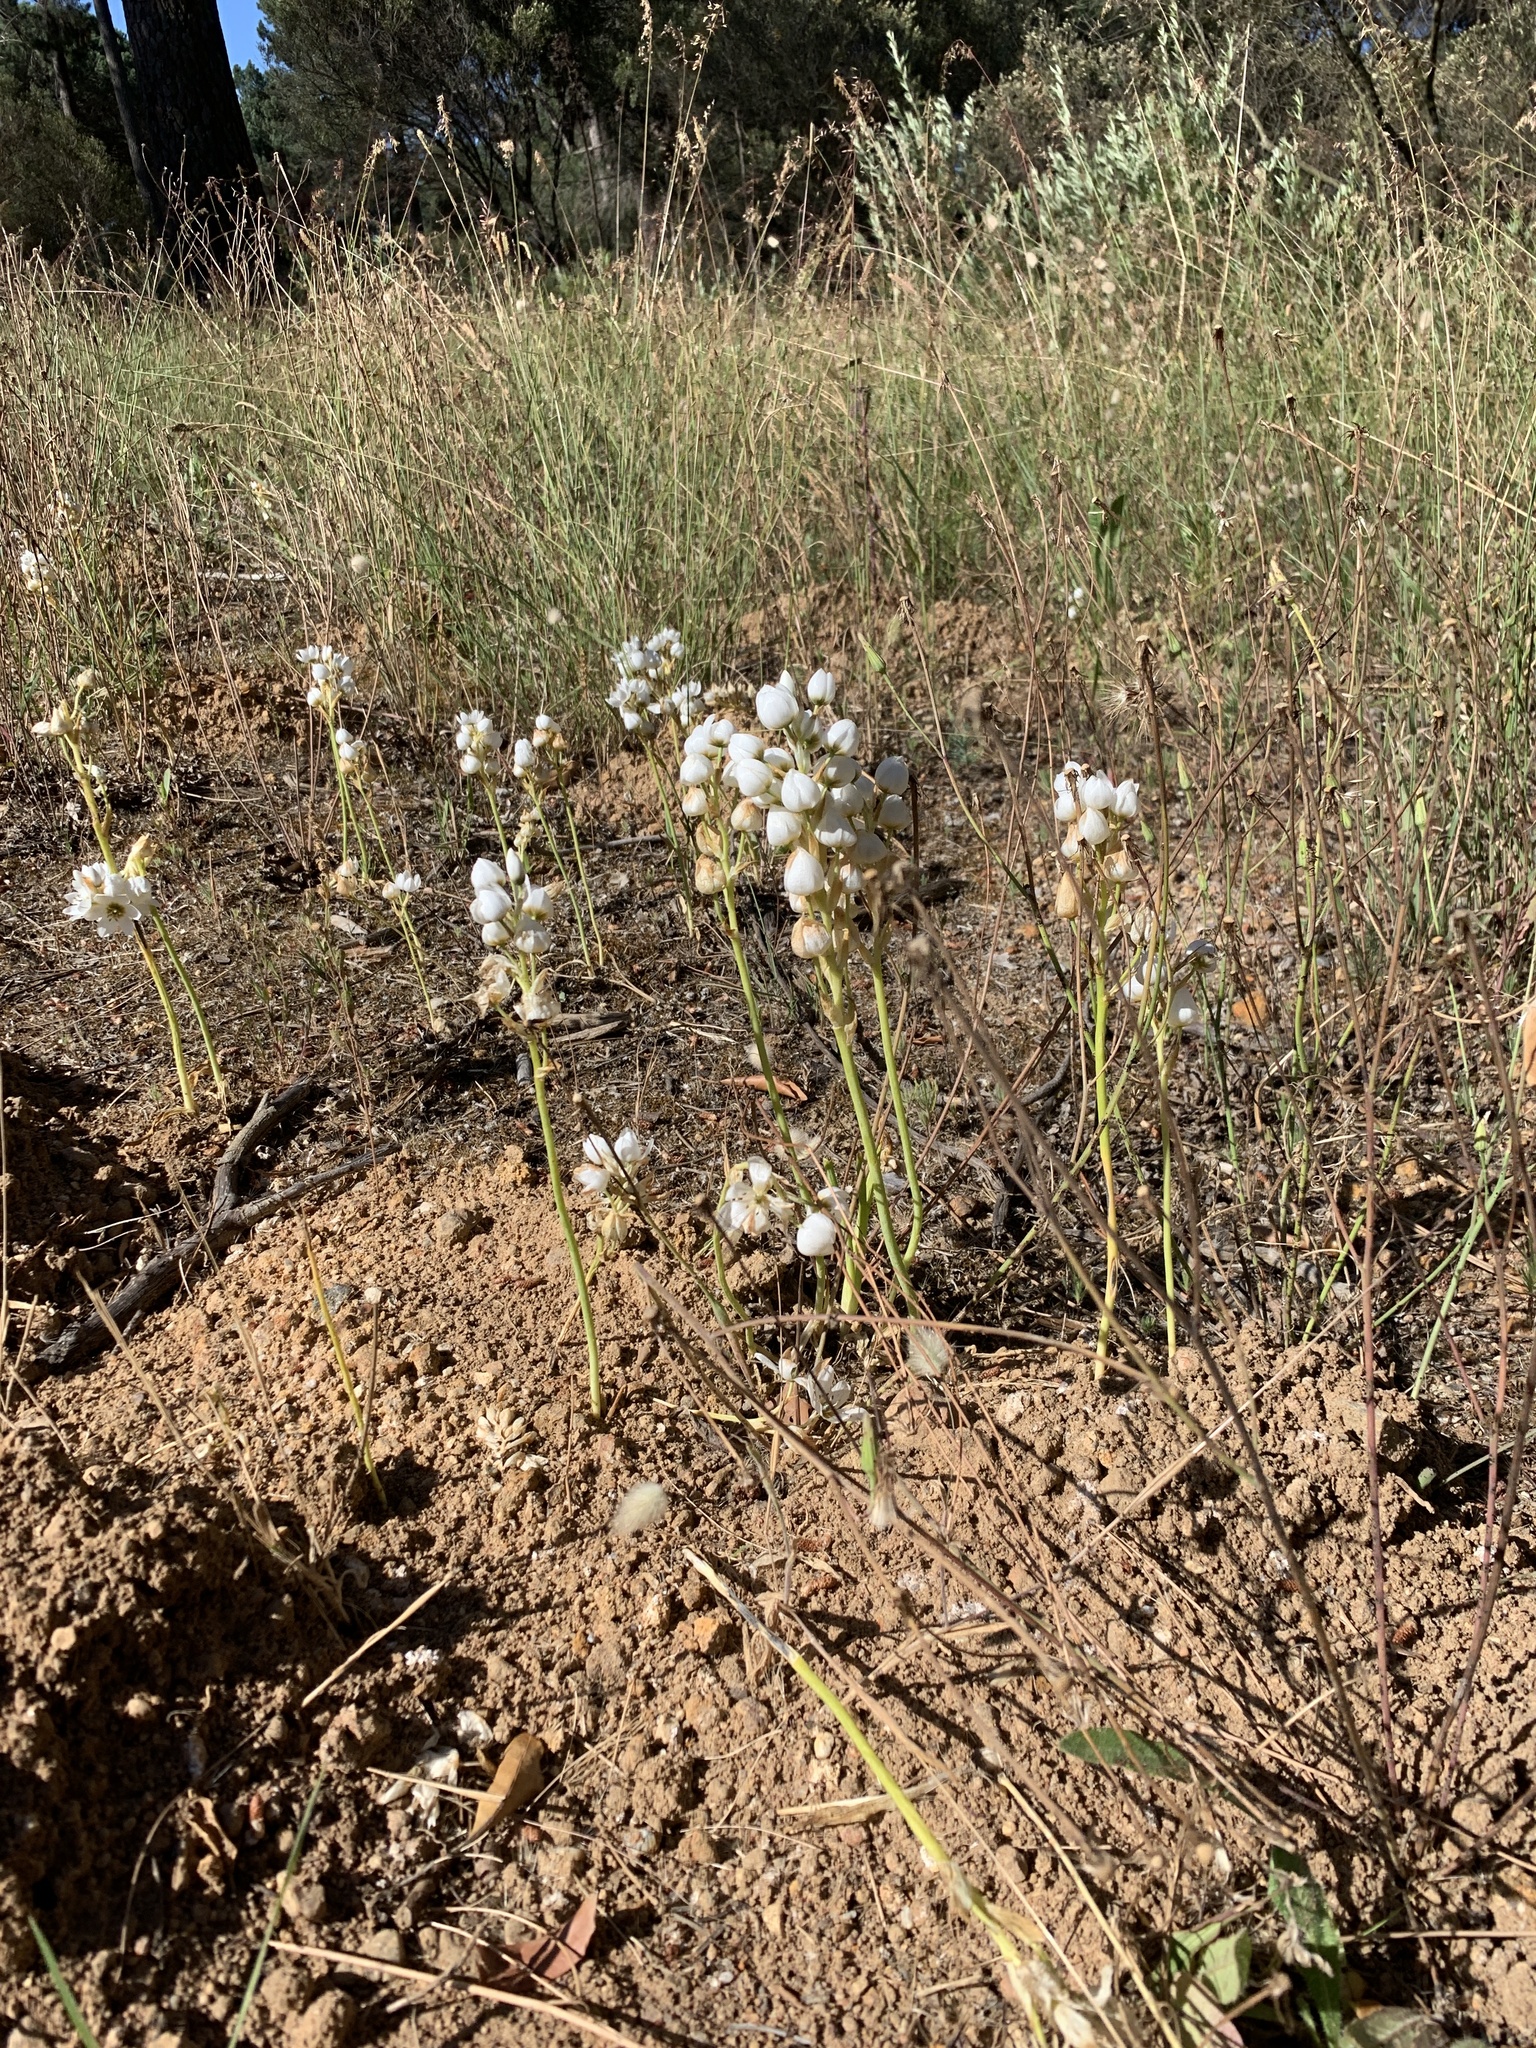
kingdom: Plantae
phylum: Tracheophyta
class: Liliopsida
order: Asparagales
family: Asparagaceae
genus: Ornithogalum
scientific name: Ornithogalum thyrsoides
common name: Chincherinchee
